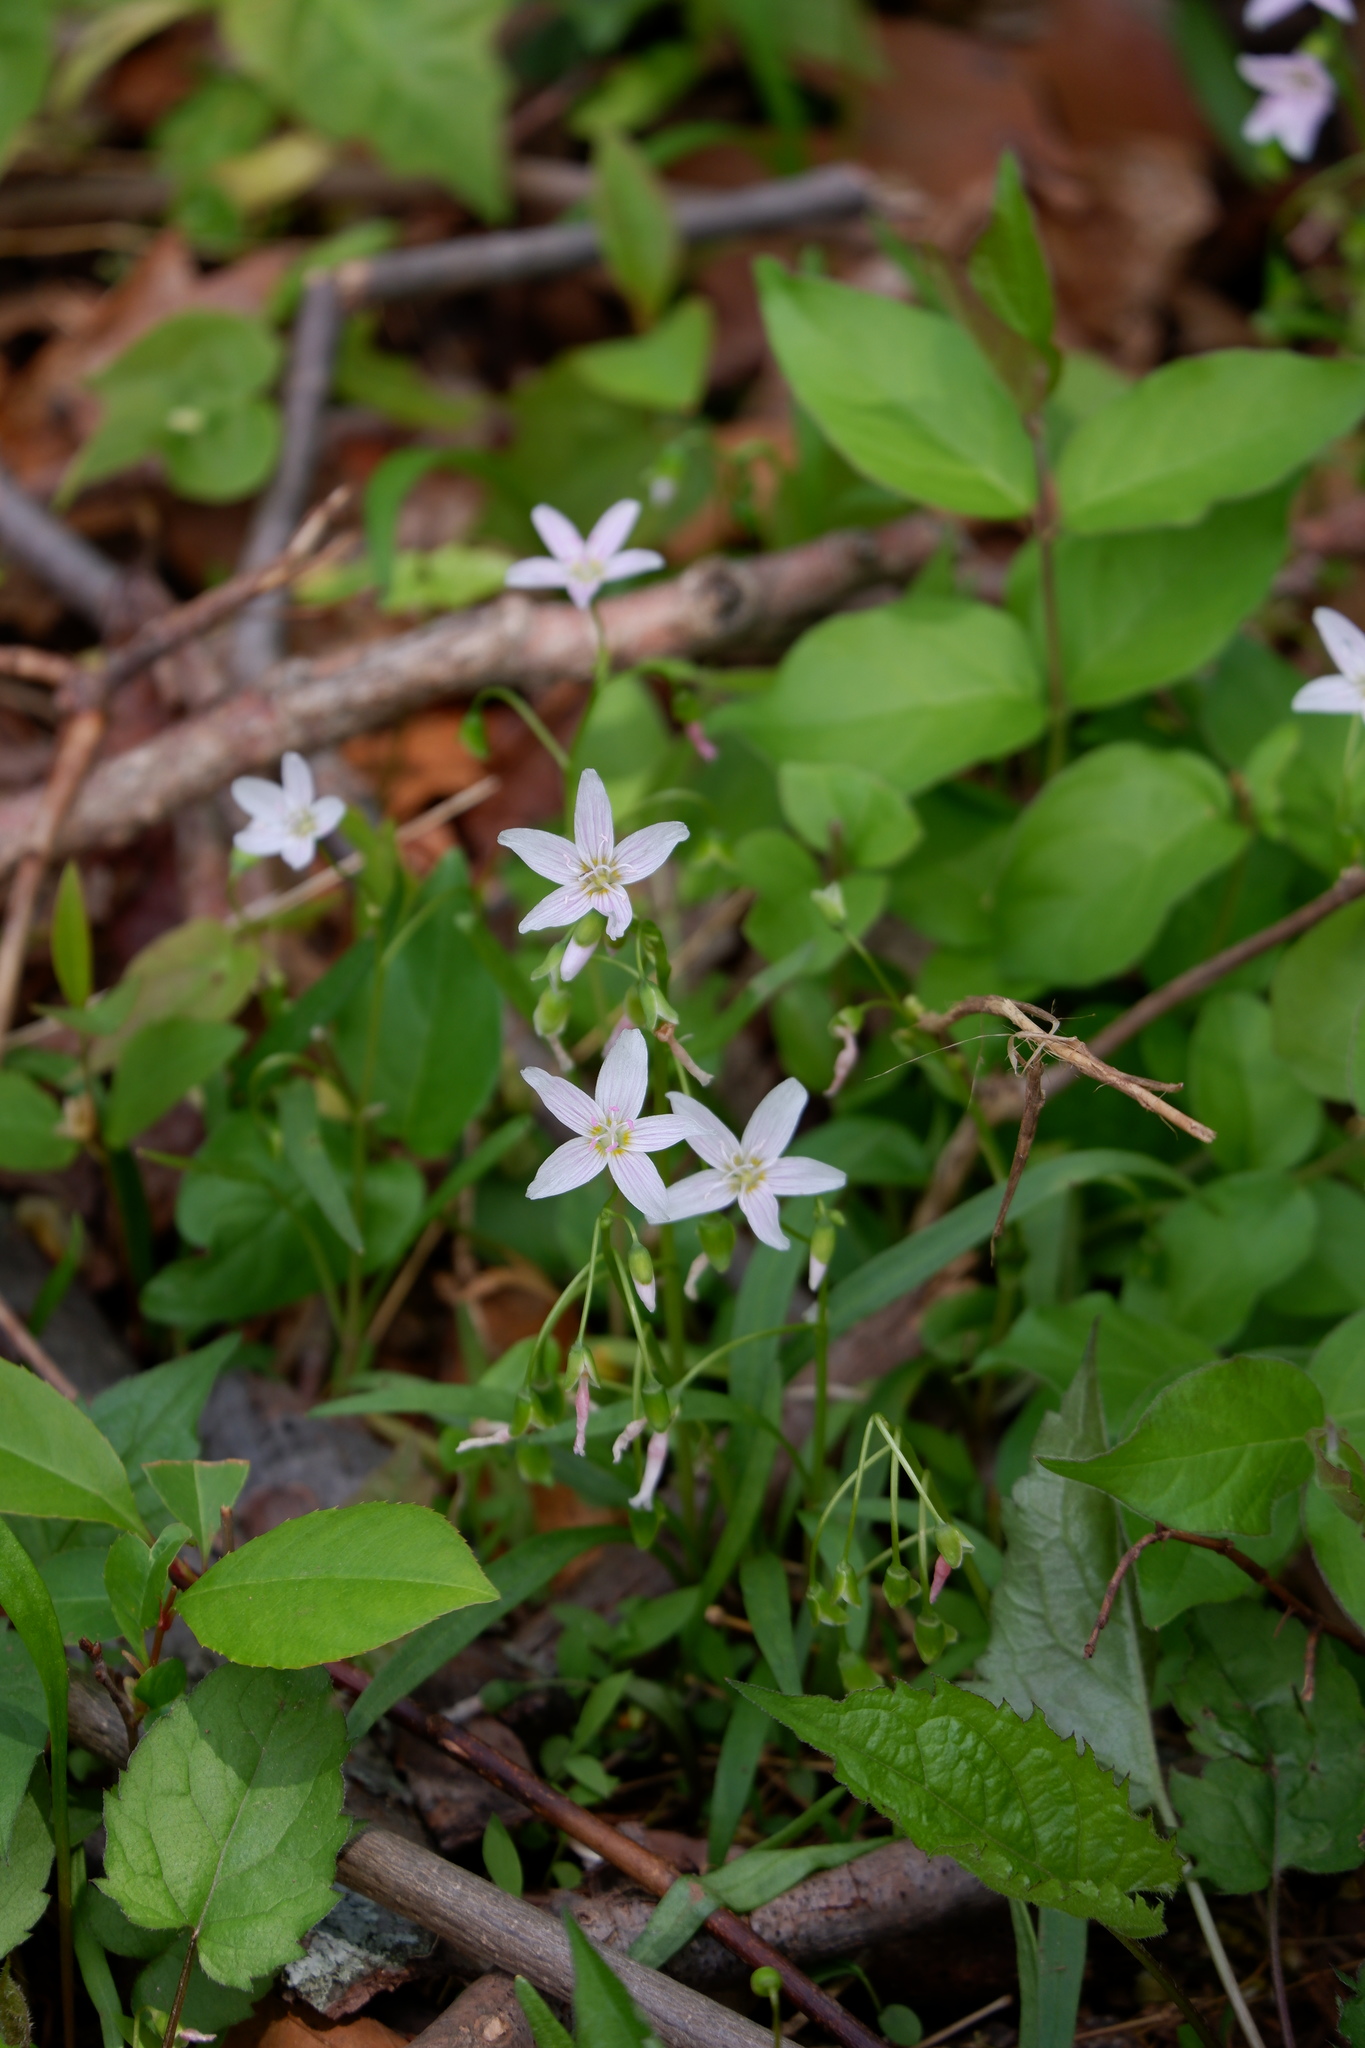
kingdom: Plantae
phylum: Tracheophyta
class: Magnoliopsida
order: Caryophyllales
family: Montiaceae
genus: Claytonia
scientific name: Claytonia virginica
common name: Virginia springbeauty
